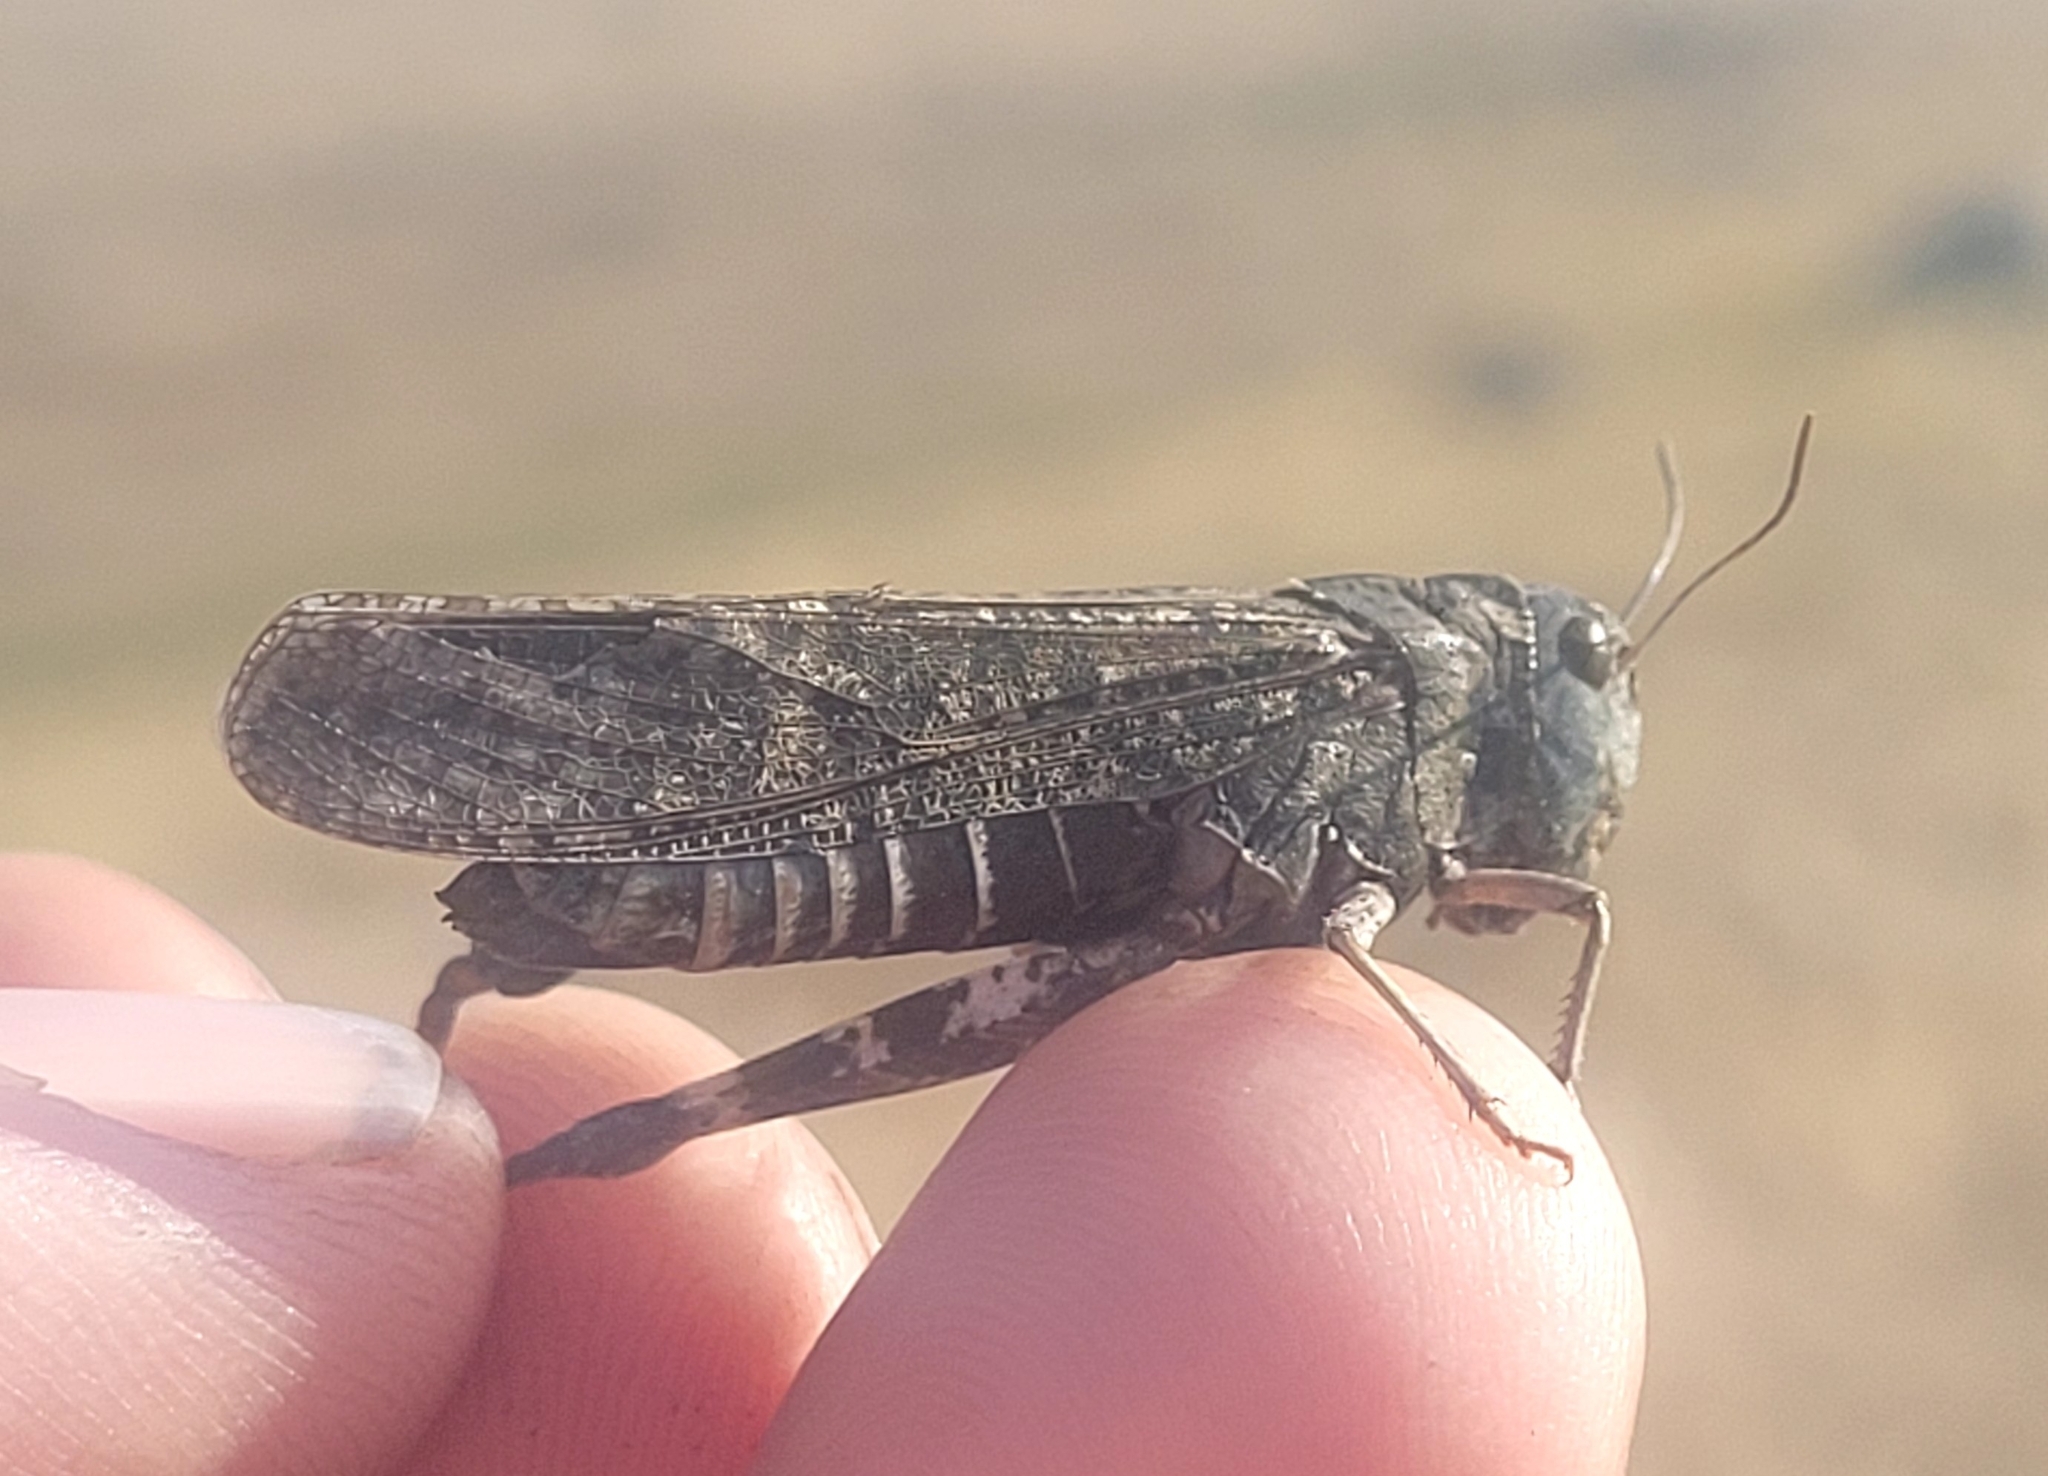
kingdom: Animalia
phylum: Arthropoda
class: Insecta
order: Orthoptera
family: Acrididae
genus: Arphia
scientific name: Arphia pseudo-nietana
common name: Red-winged grasshopper
